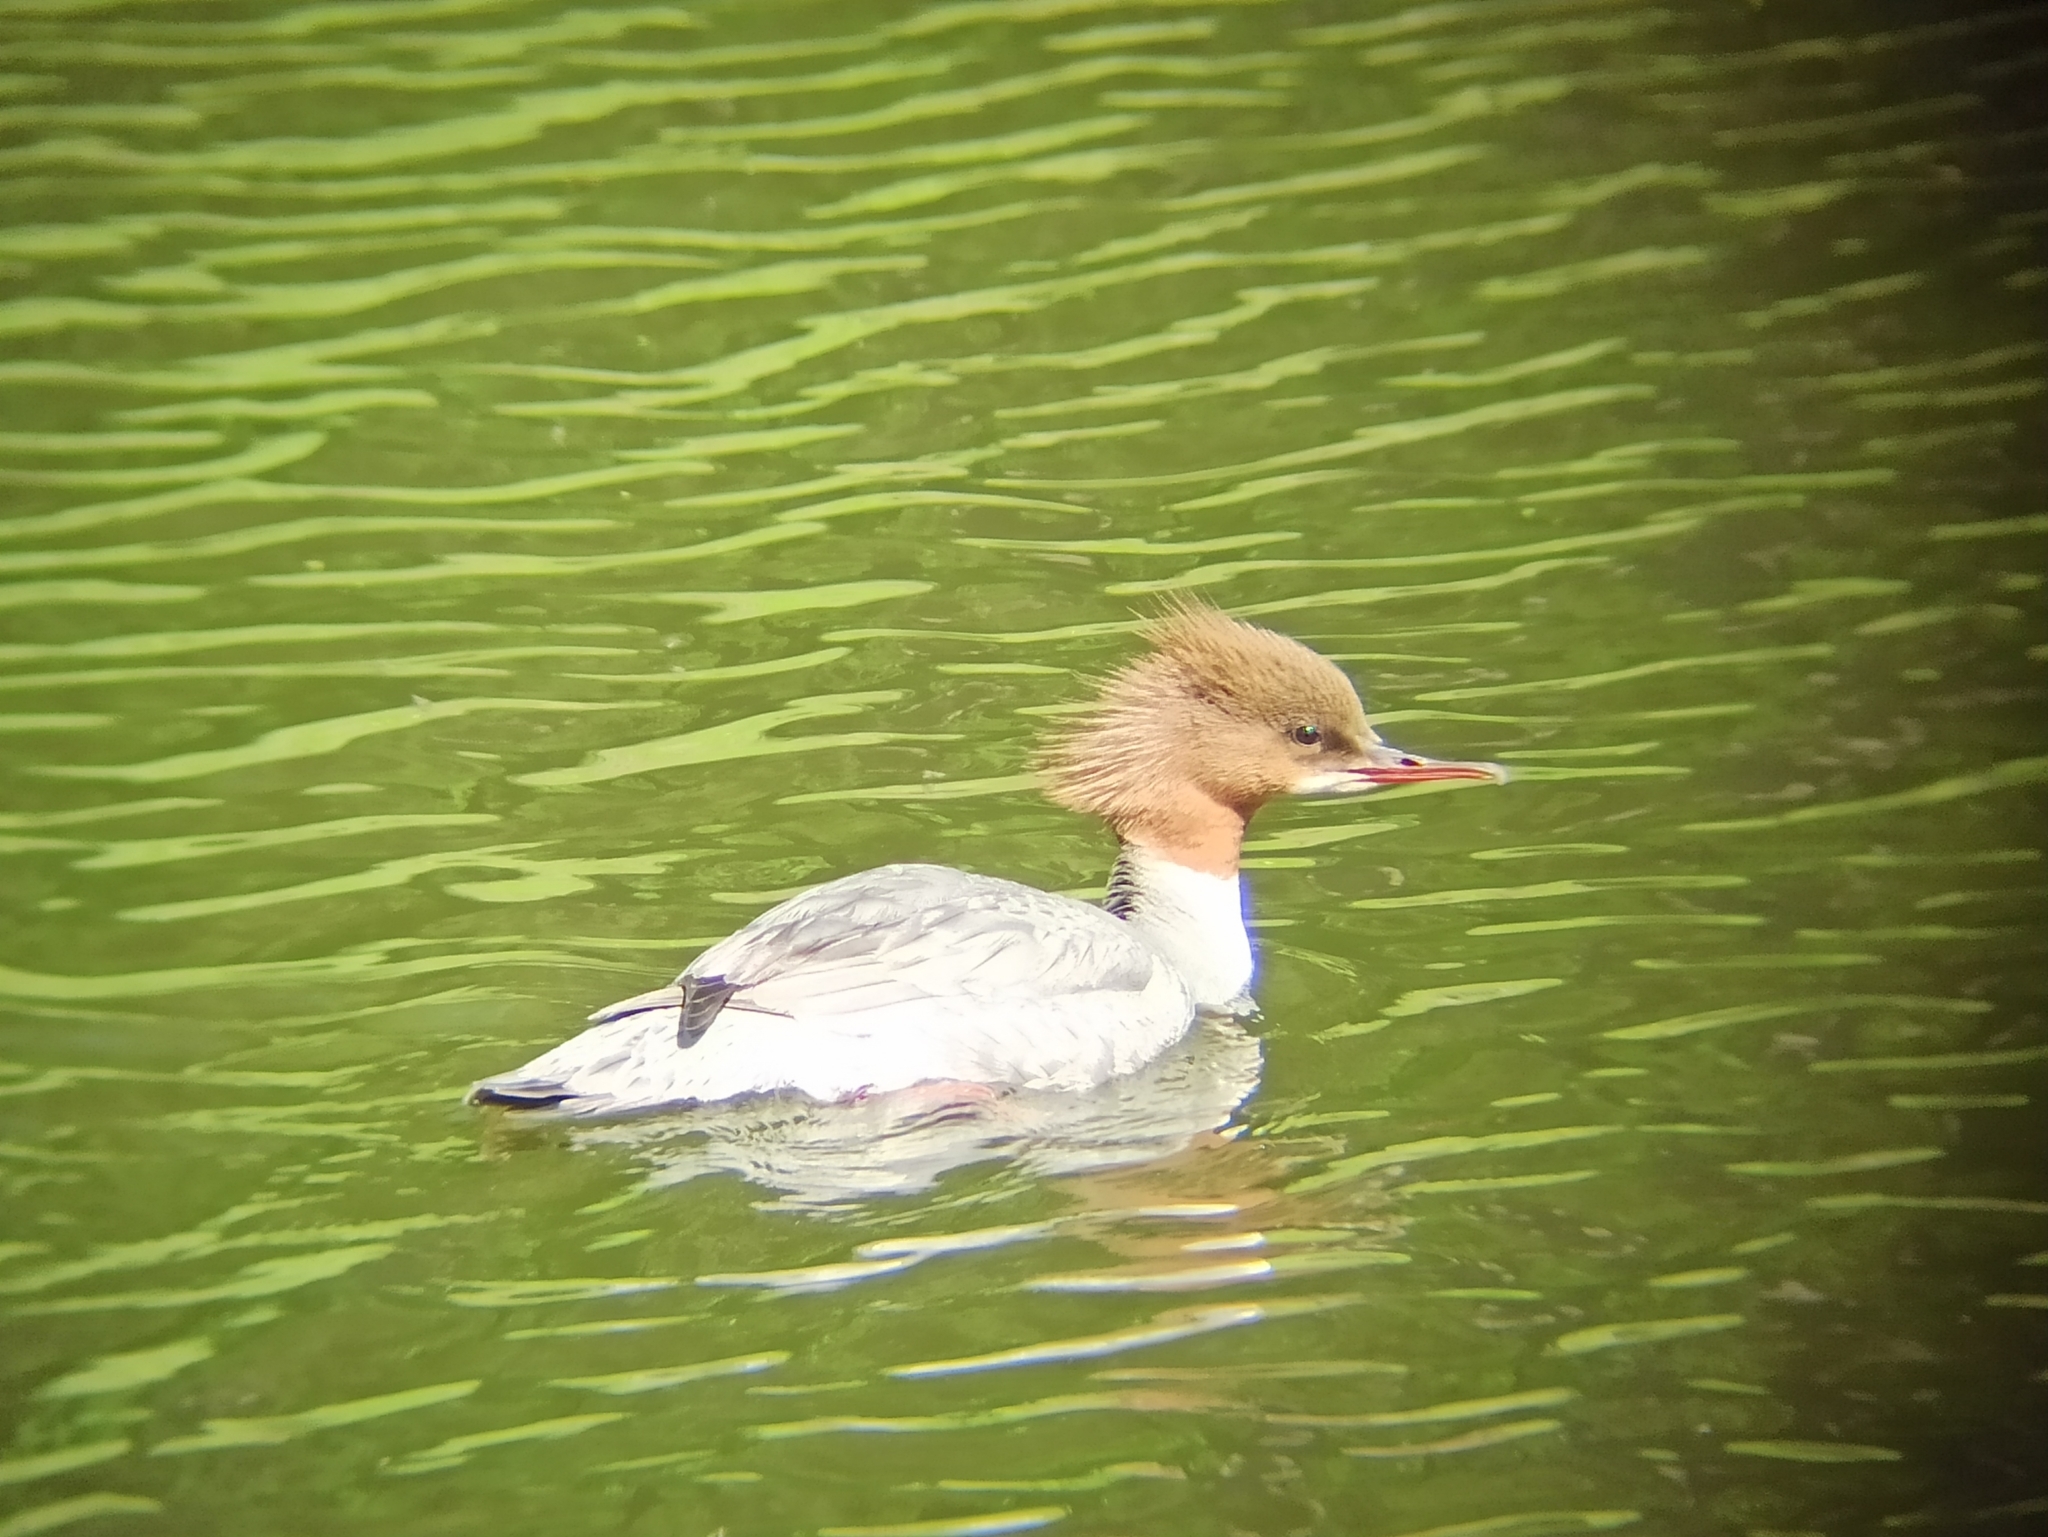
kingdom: Animalia
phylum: Chordata
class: Aves
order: Anseriformes
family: Anatidae
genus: Mergus
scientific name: Mergus merganser
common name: Common merganser
